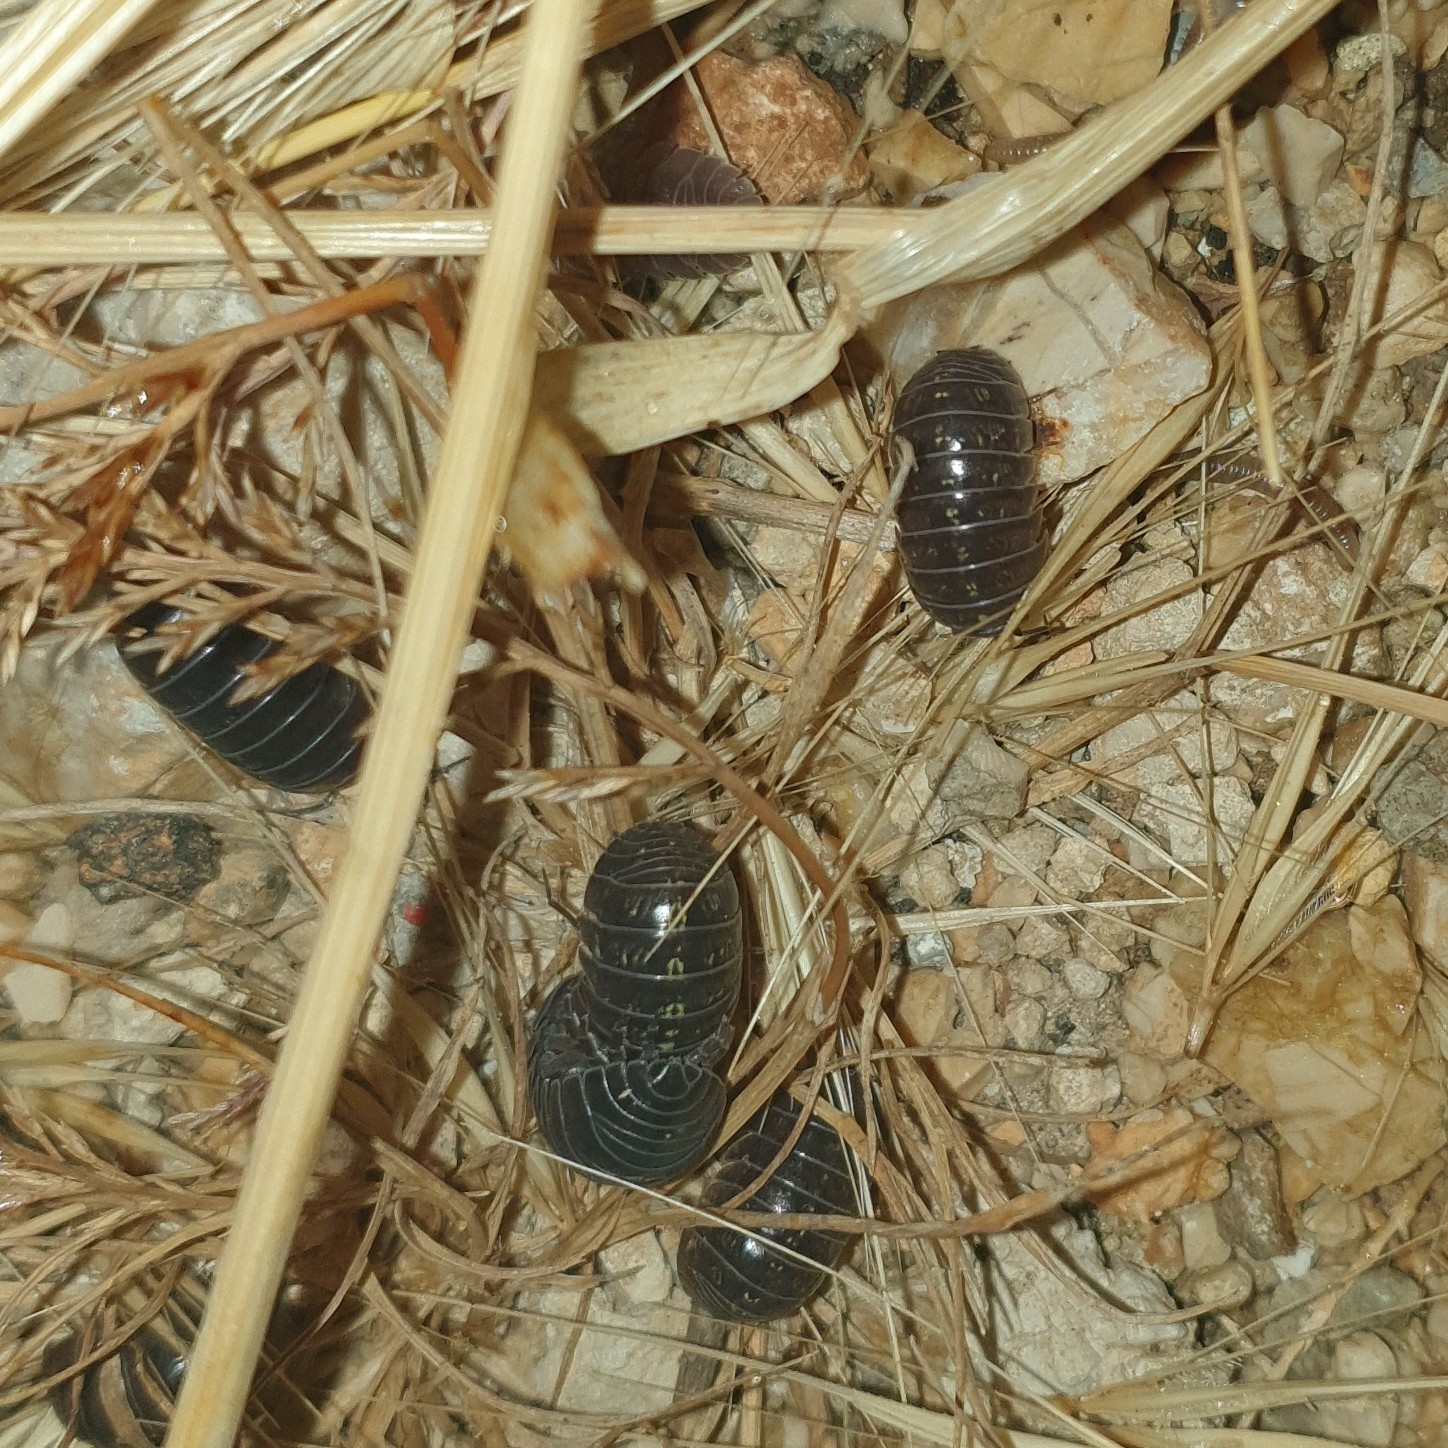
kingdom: Animalia
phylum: Arthropoda
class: Malacostraca
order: Isopoda
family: Armadillidiidae
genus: Armadillidium
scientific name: Armadillidium vulgare
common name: Common pill woodlouse
